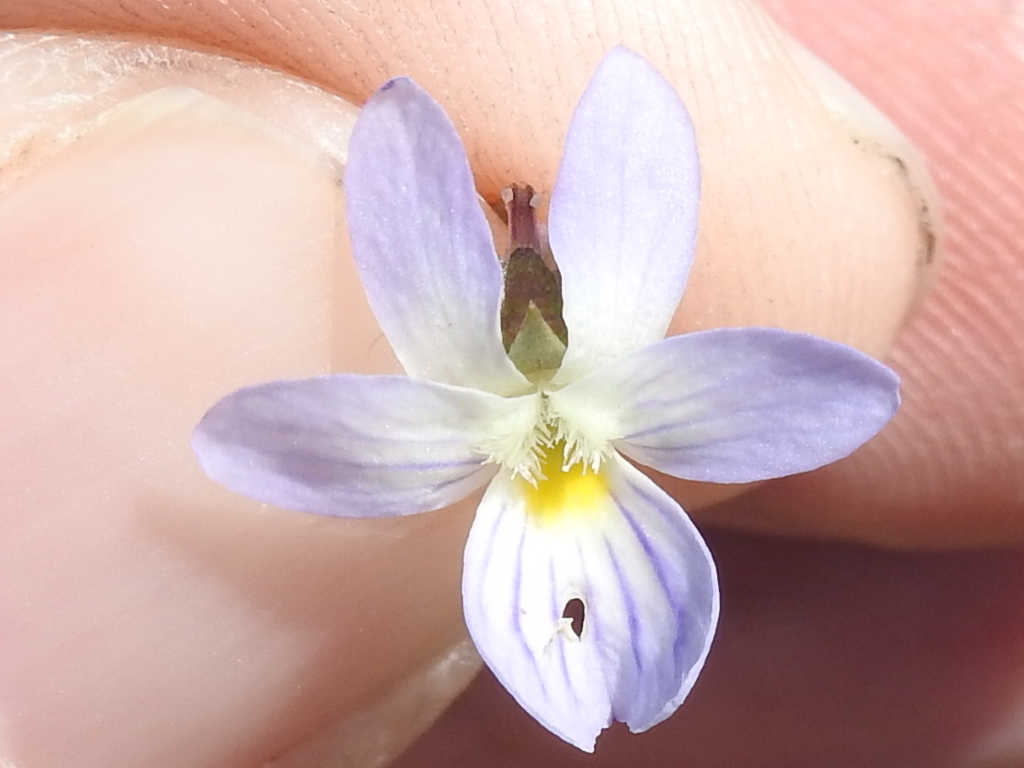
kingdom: Plantae
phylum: Tracheophyta
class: Magnoliopsida
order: Malpighiales
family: Violaceae
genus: Viola
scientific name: Viola rafinesquei
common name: American field pansy
